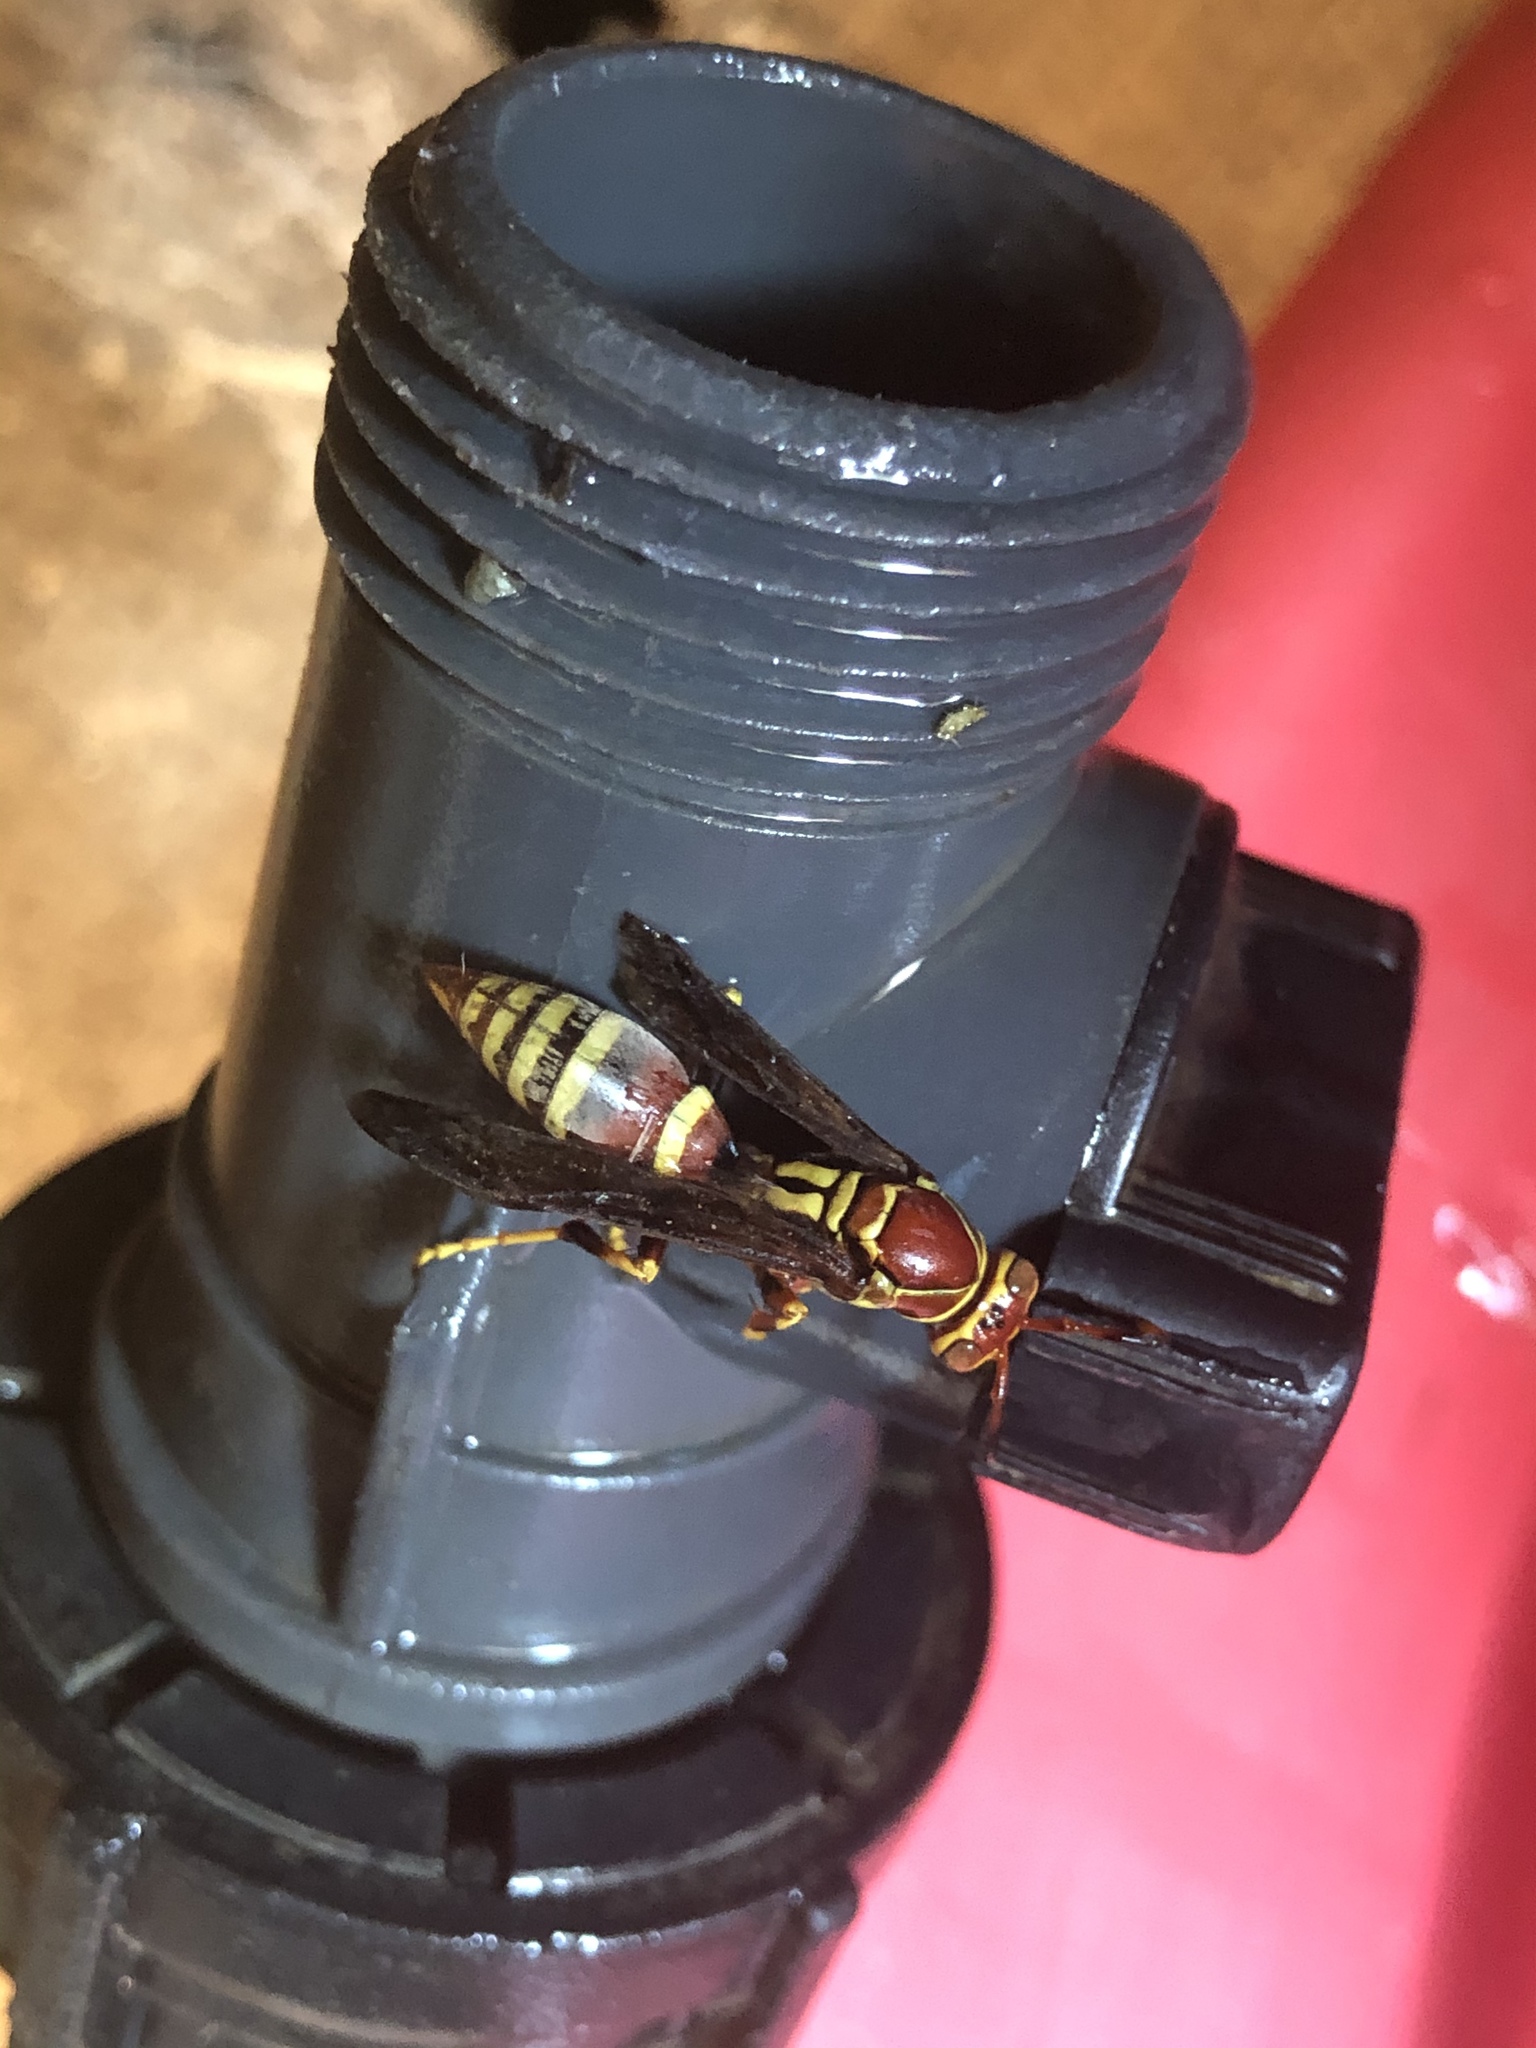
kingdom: Animalia
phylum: Arthropoda
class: Insecta
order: Hymenoptera
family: Eumenidae
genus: Polistes
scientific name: Polistes exclamans
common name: Paper wasp
